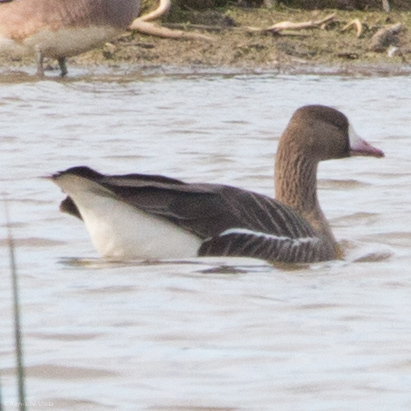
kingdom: Animalia
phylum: Chordata
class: Aves
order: Anseriformes
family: Anatidae
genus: Anser
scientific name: Anser albifrons
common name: Greater white-fronted goose
